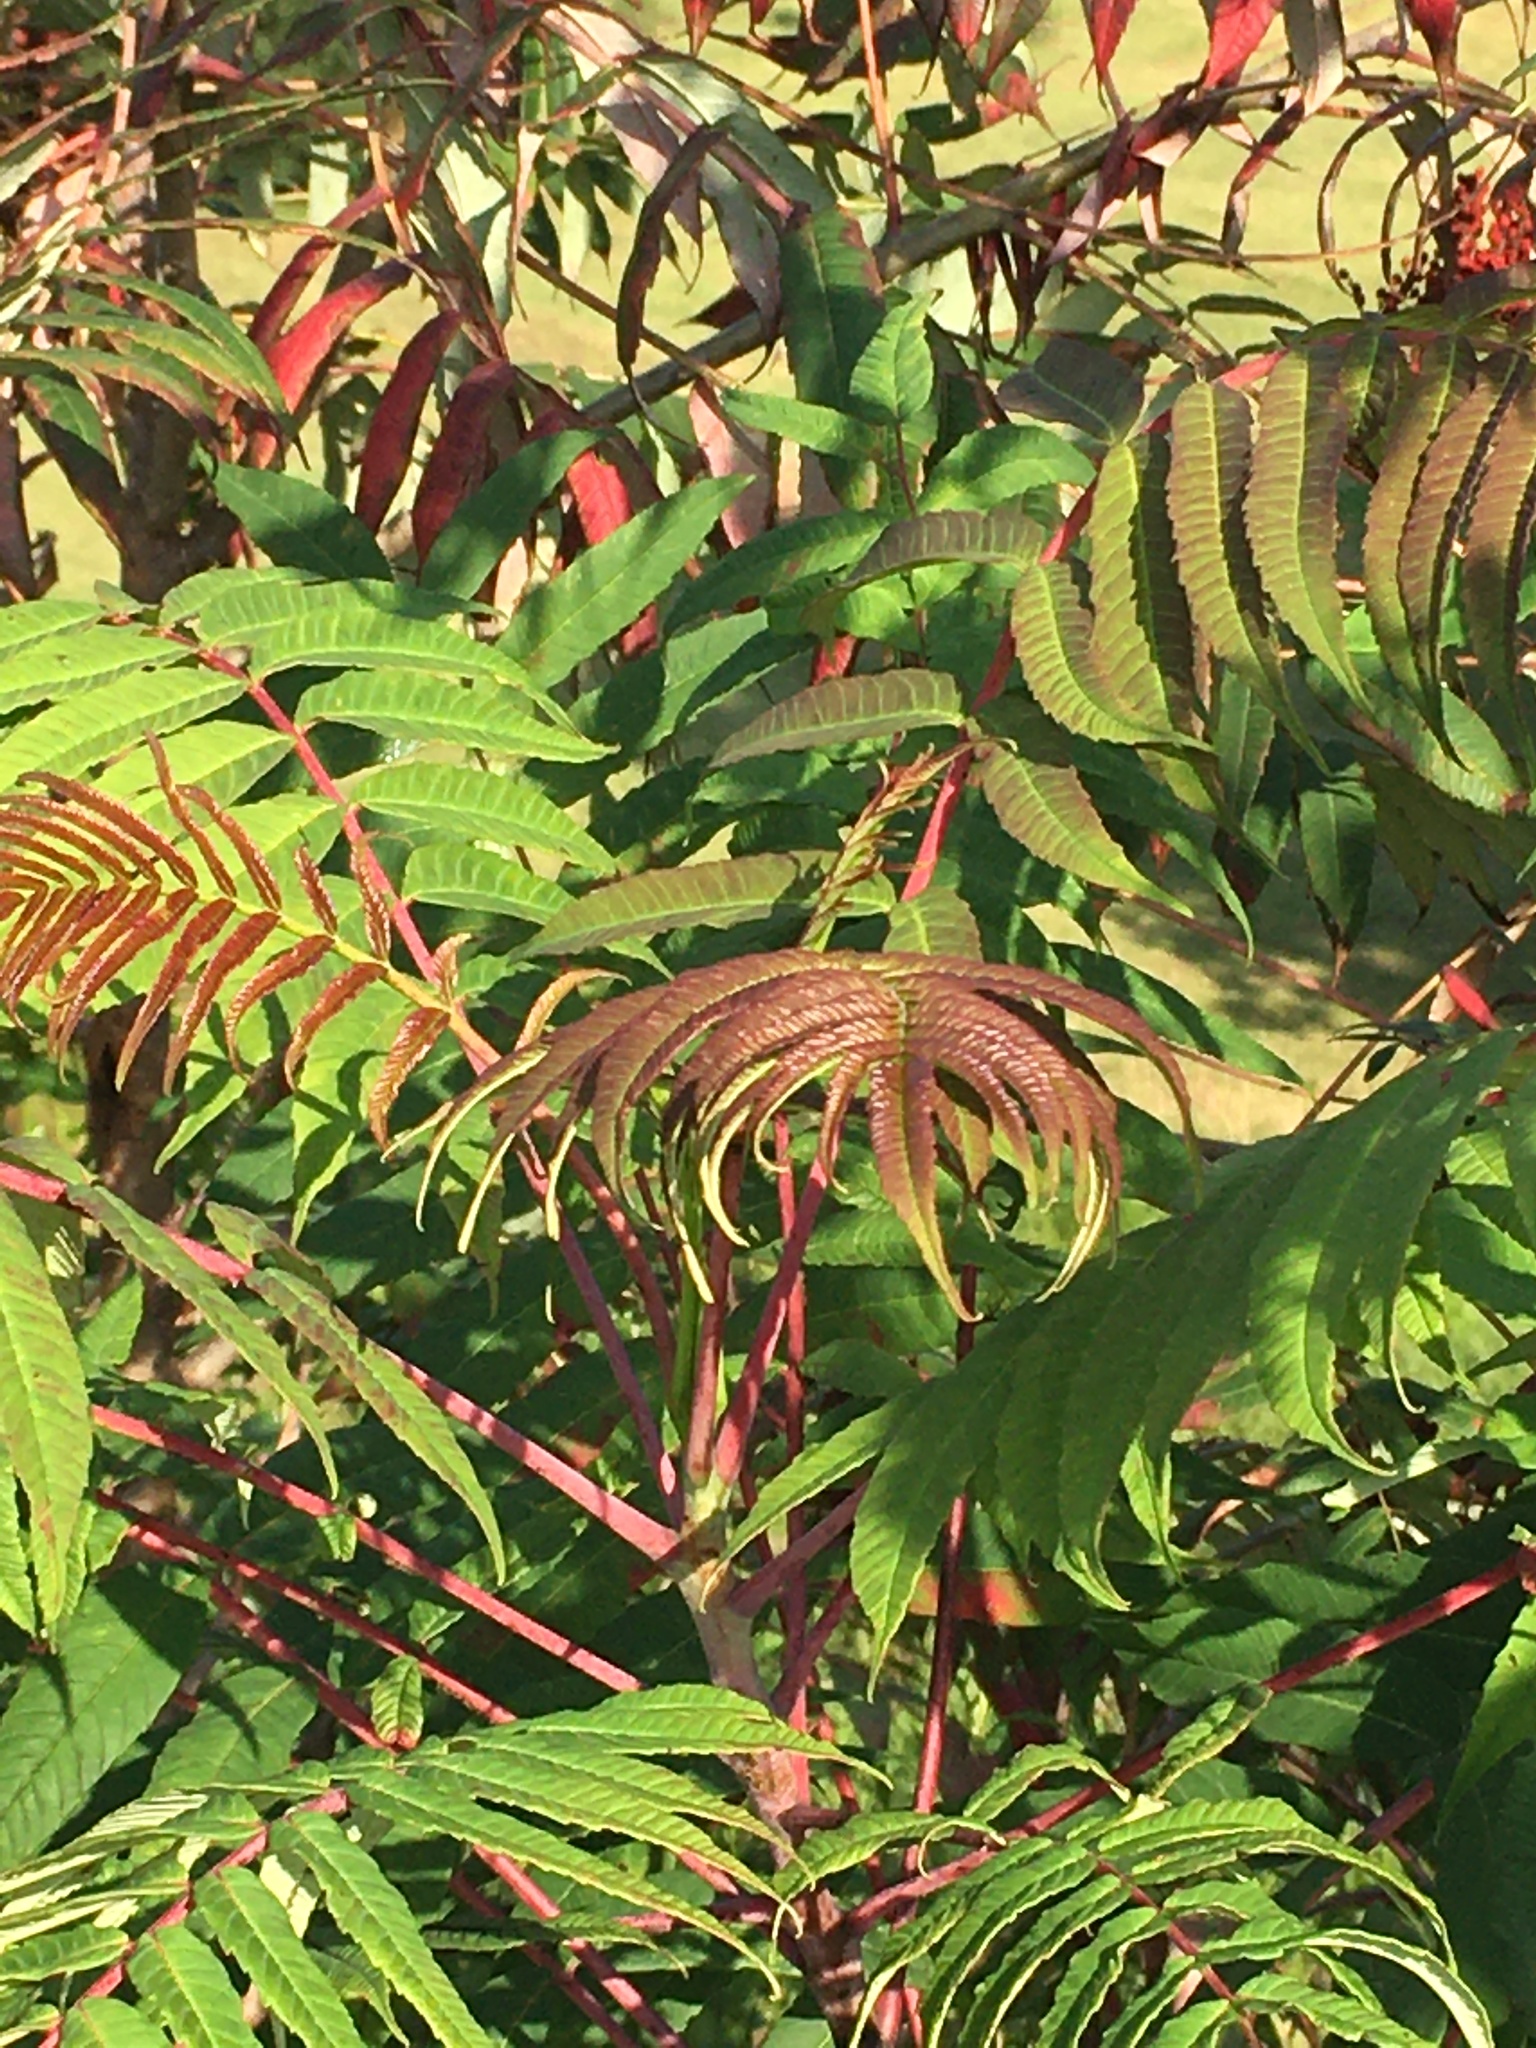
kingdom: Plantae
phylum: Tracheophyta
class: Magnoliopsida
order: Sapindales
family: Anacardiaceae
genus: Rhus
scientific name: Rhus glabra
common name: Scarlet sumac
